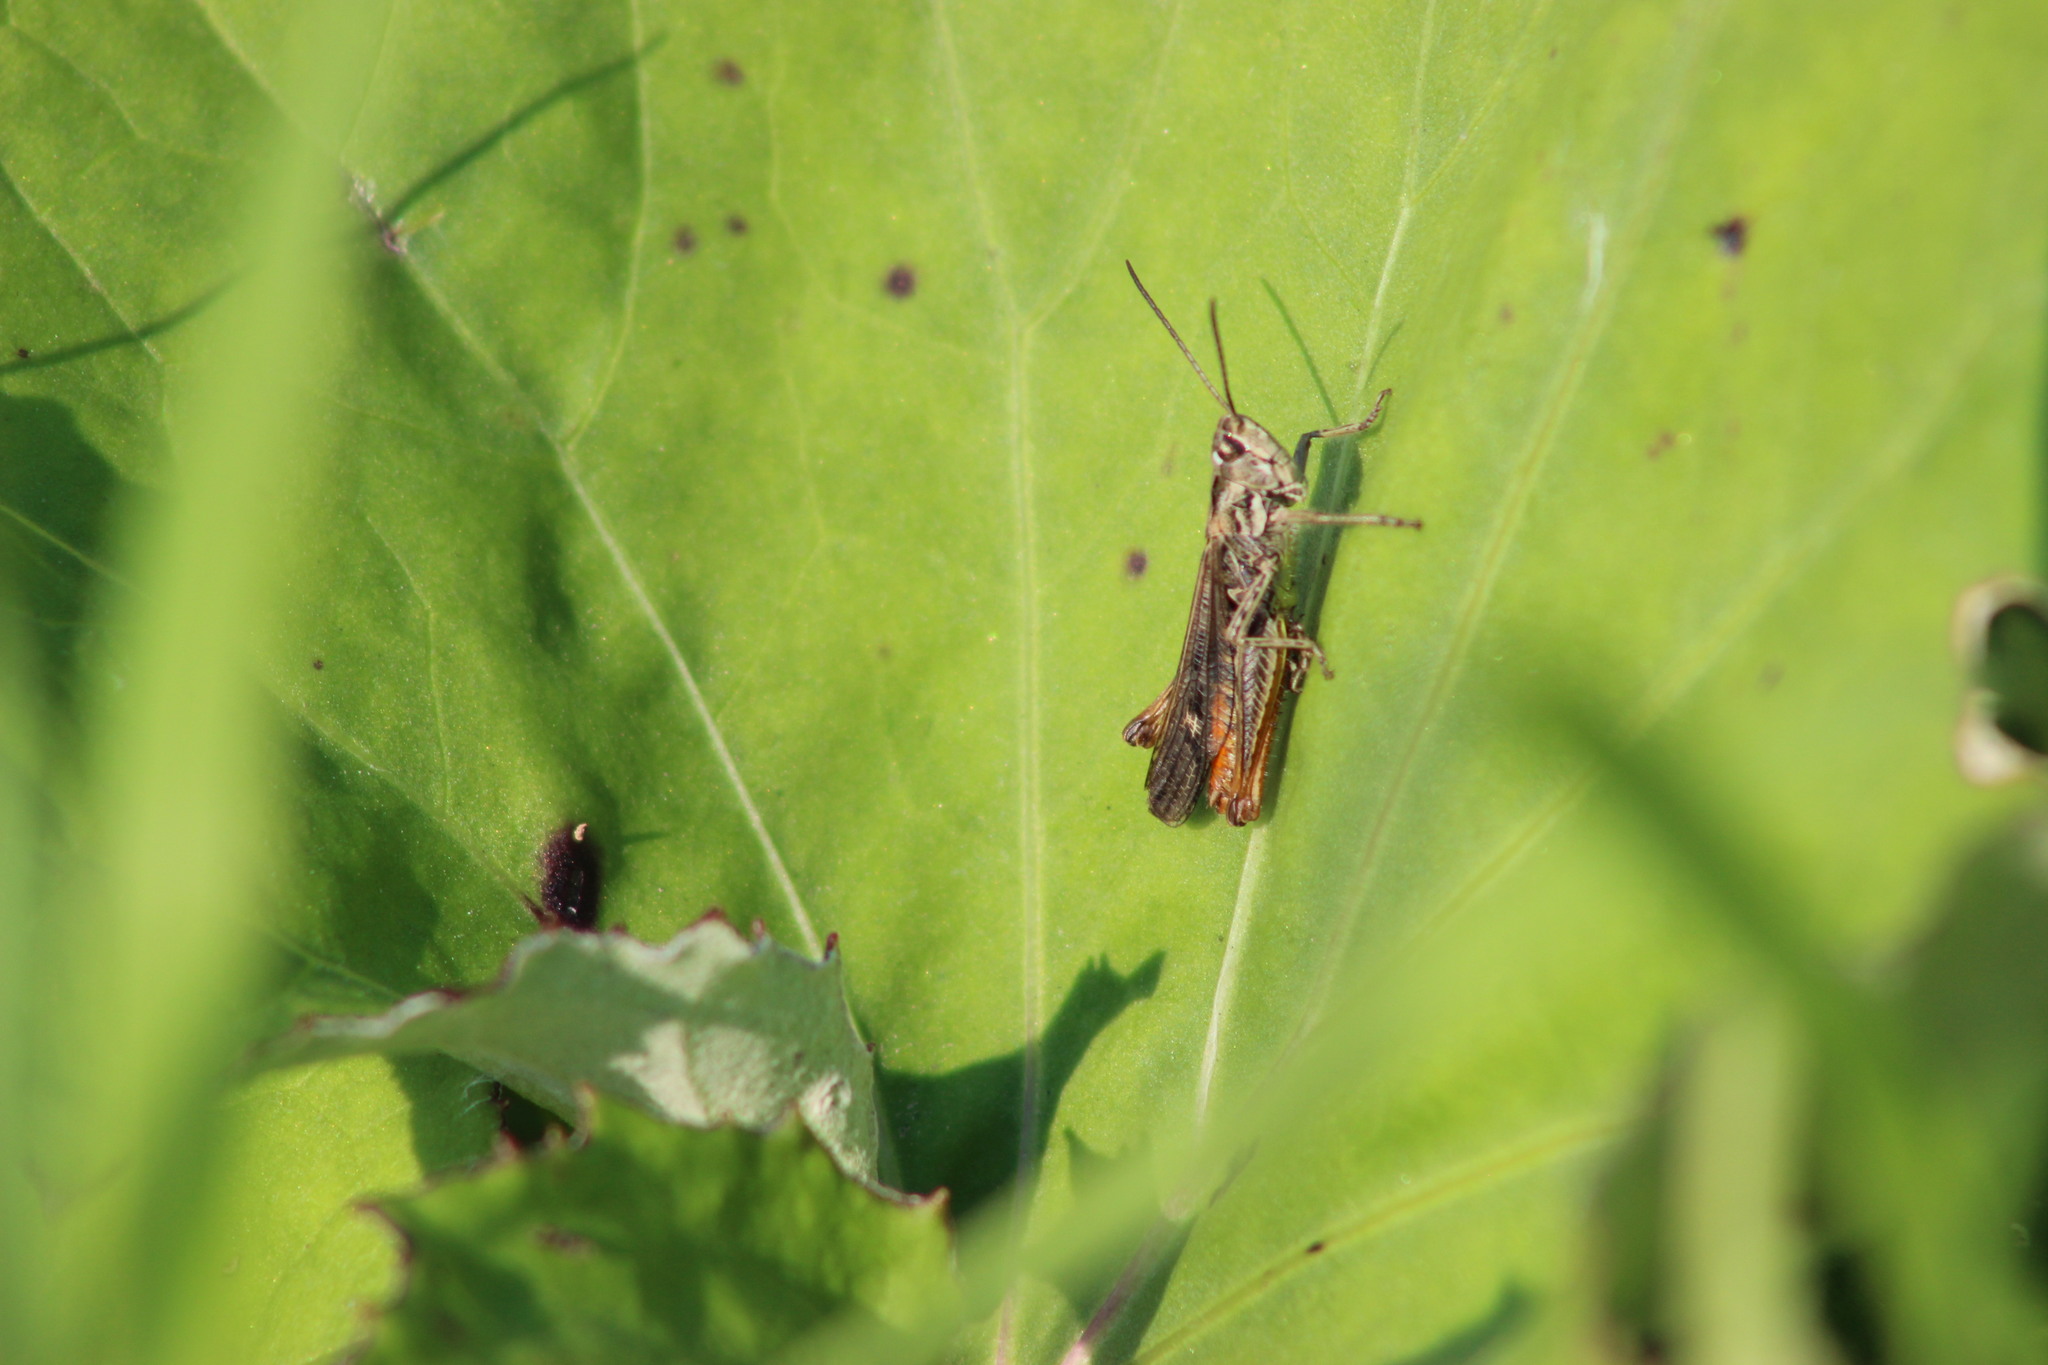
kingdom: Animalia
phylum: Arthropoda
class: Insecta
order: Orthoptera
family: Acrididae
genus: Chorthippus
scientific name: Chorthippus biguttulus
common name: Bow-winged grasshopper
